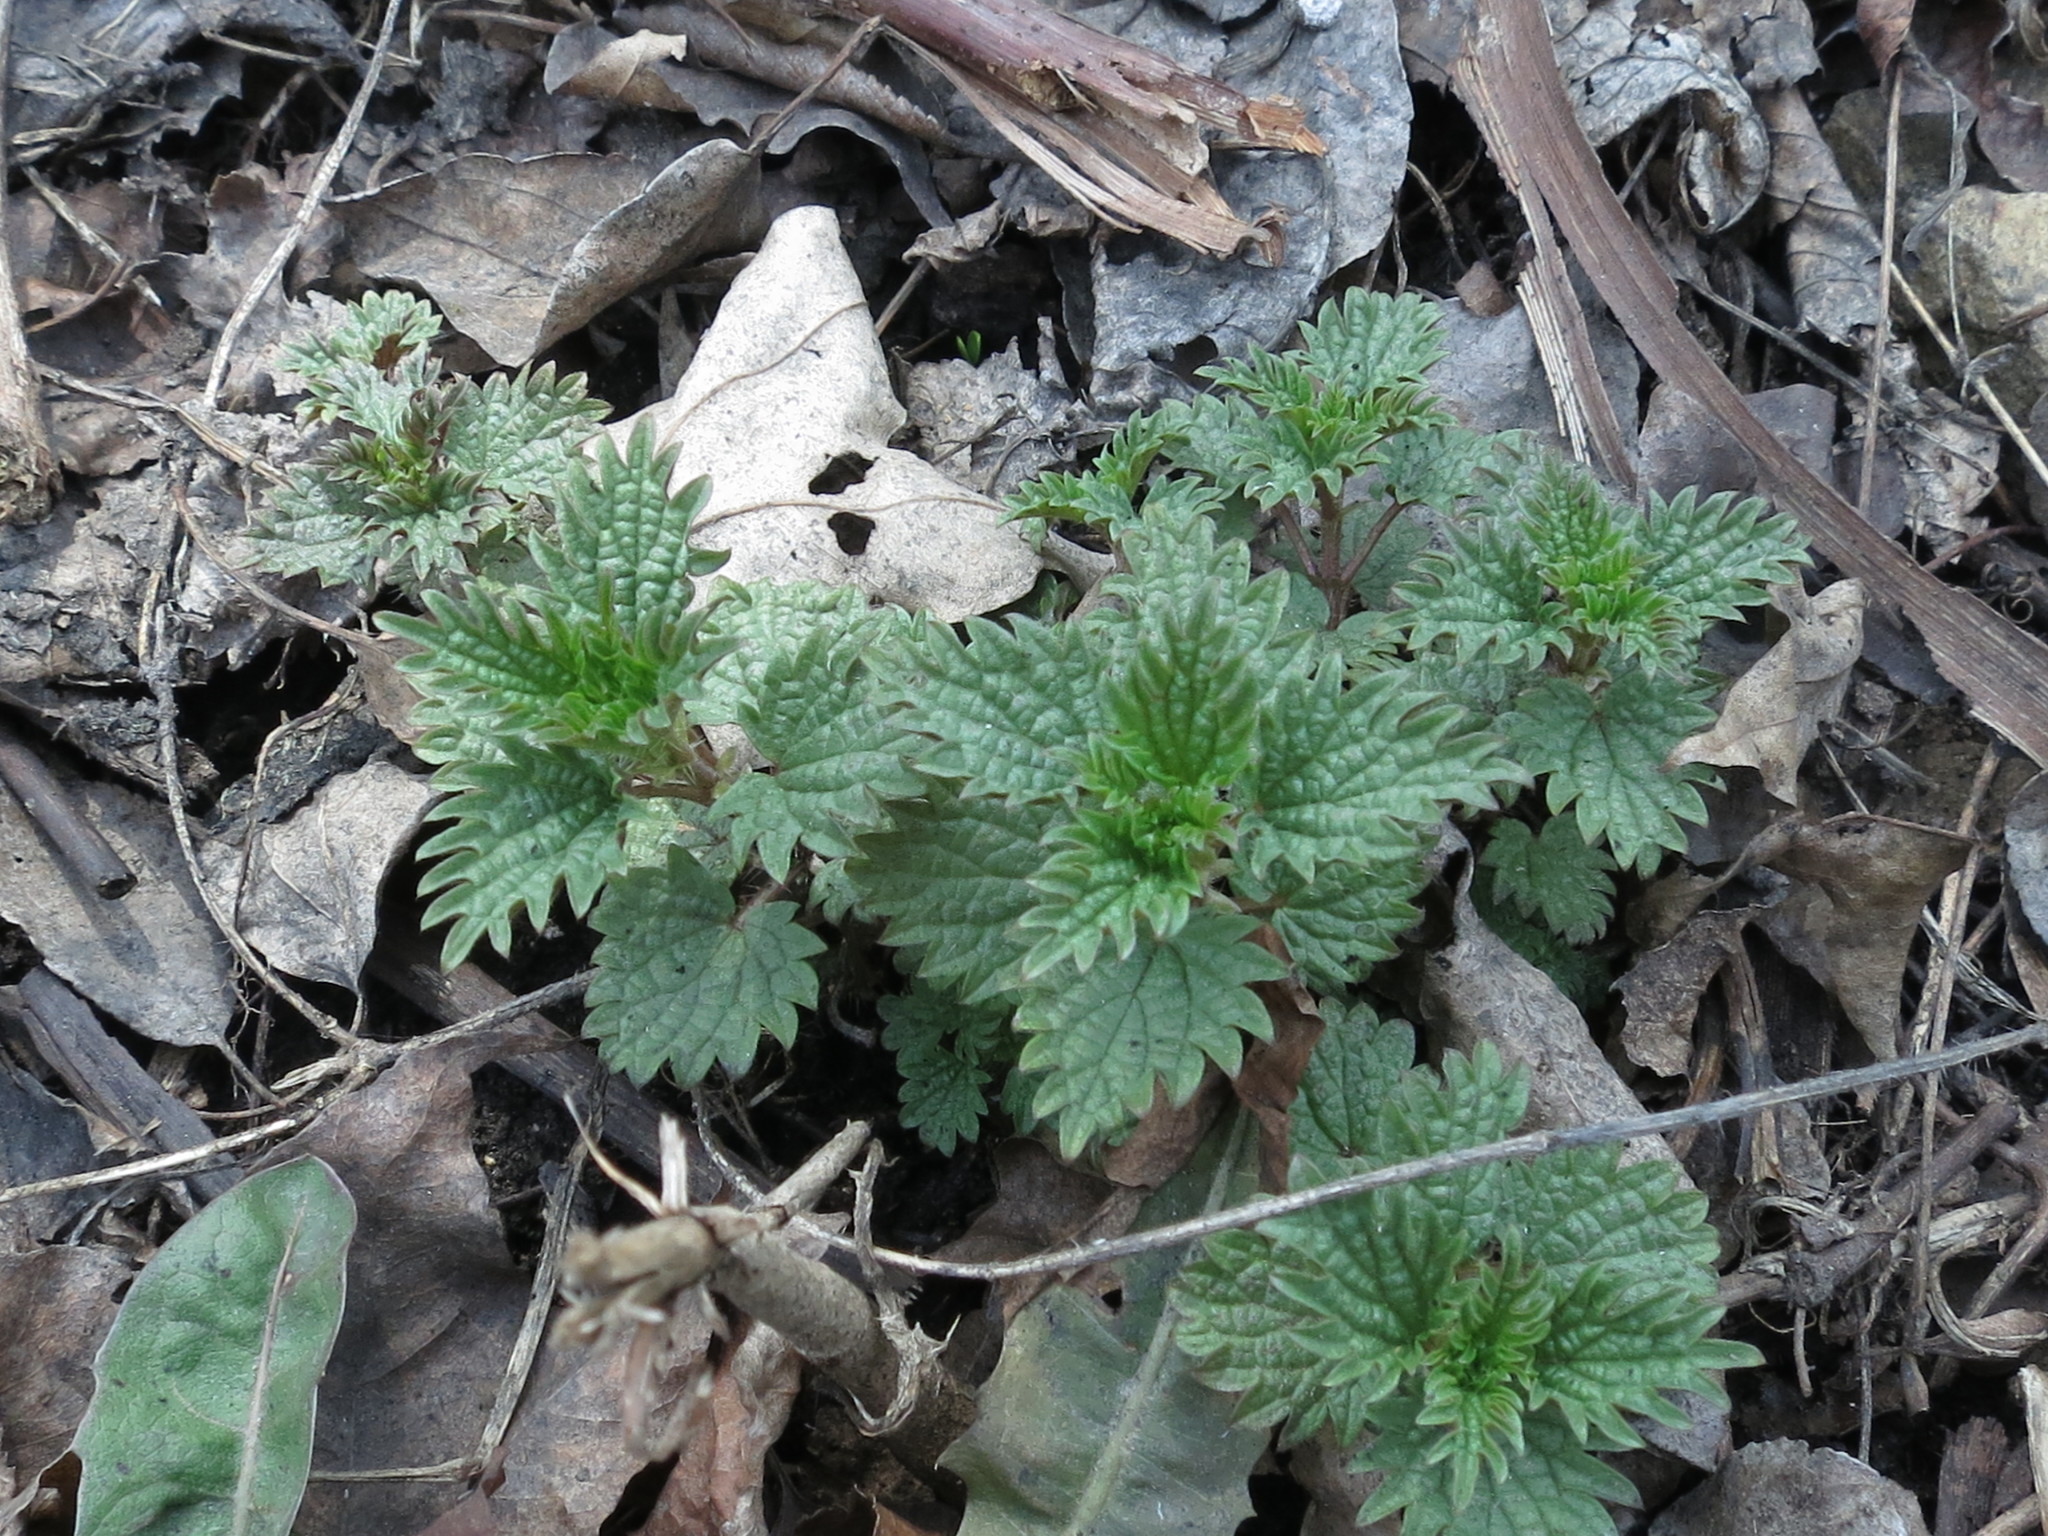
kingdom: Plantae
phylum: Tracheophyta
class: Magnoliopsida
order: Rosales
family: Urticaceae
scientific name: Urticaceae
